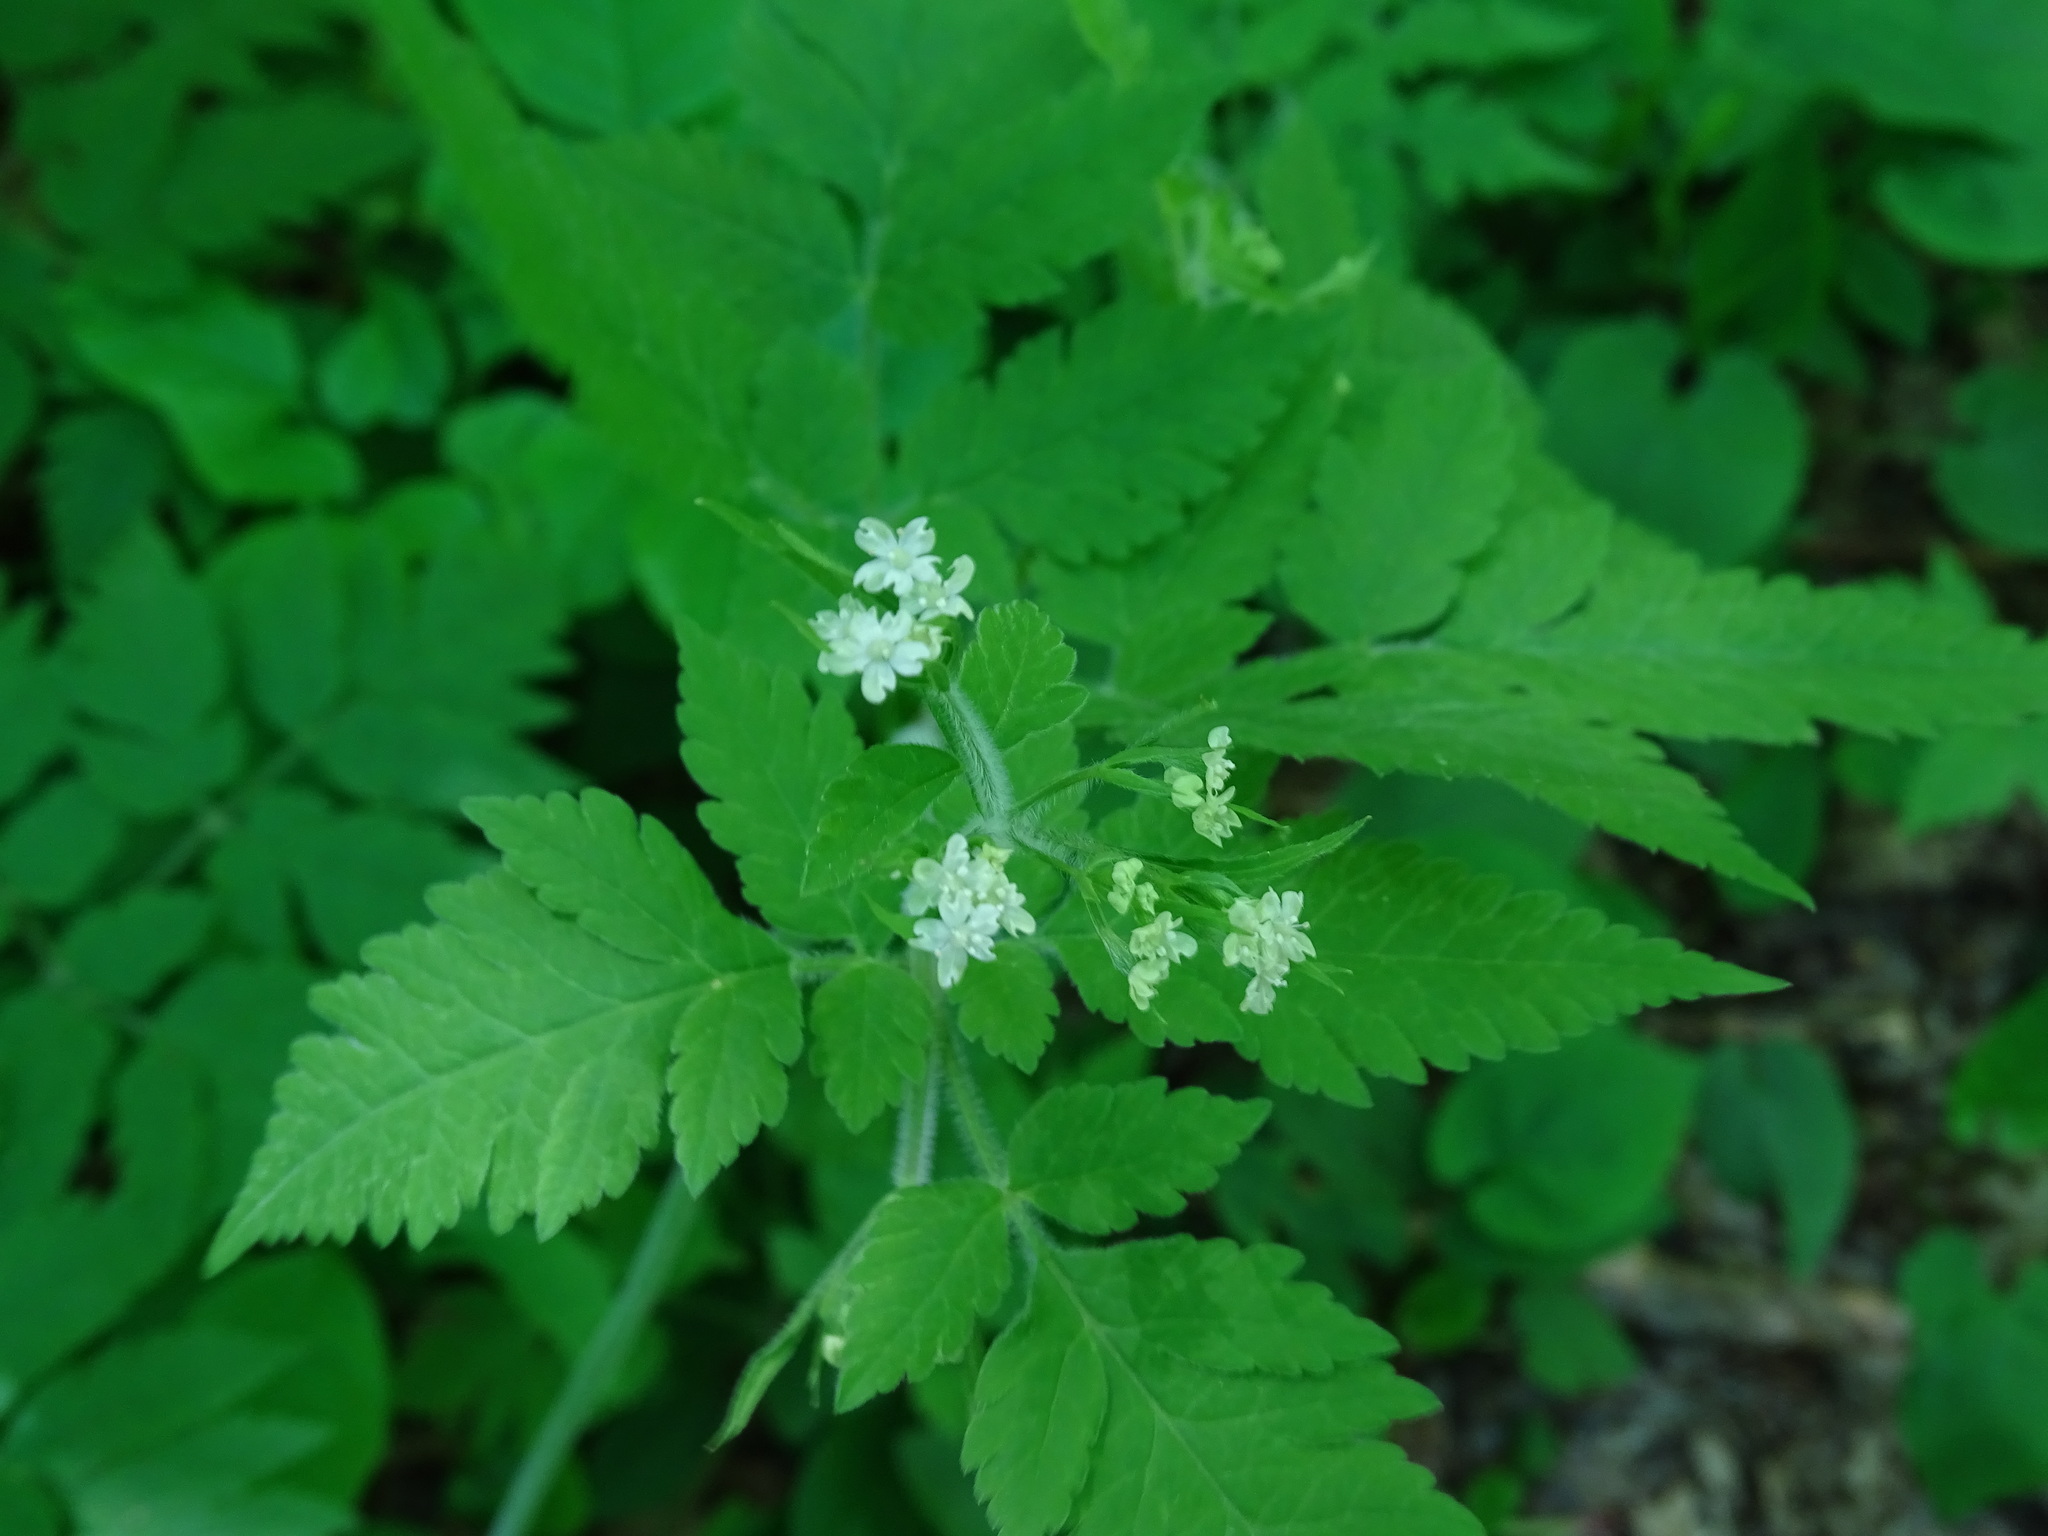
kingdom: Plantae
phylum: Tracheophyta
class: Magnoliopsida
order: Apiales
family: Apiaceae
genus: Osmorhiza
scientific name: Osmorhiza claytonii
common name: Hairy sweet cicely
